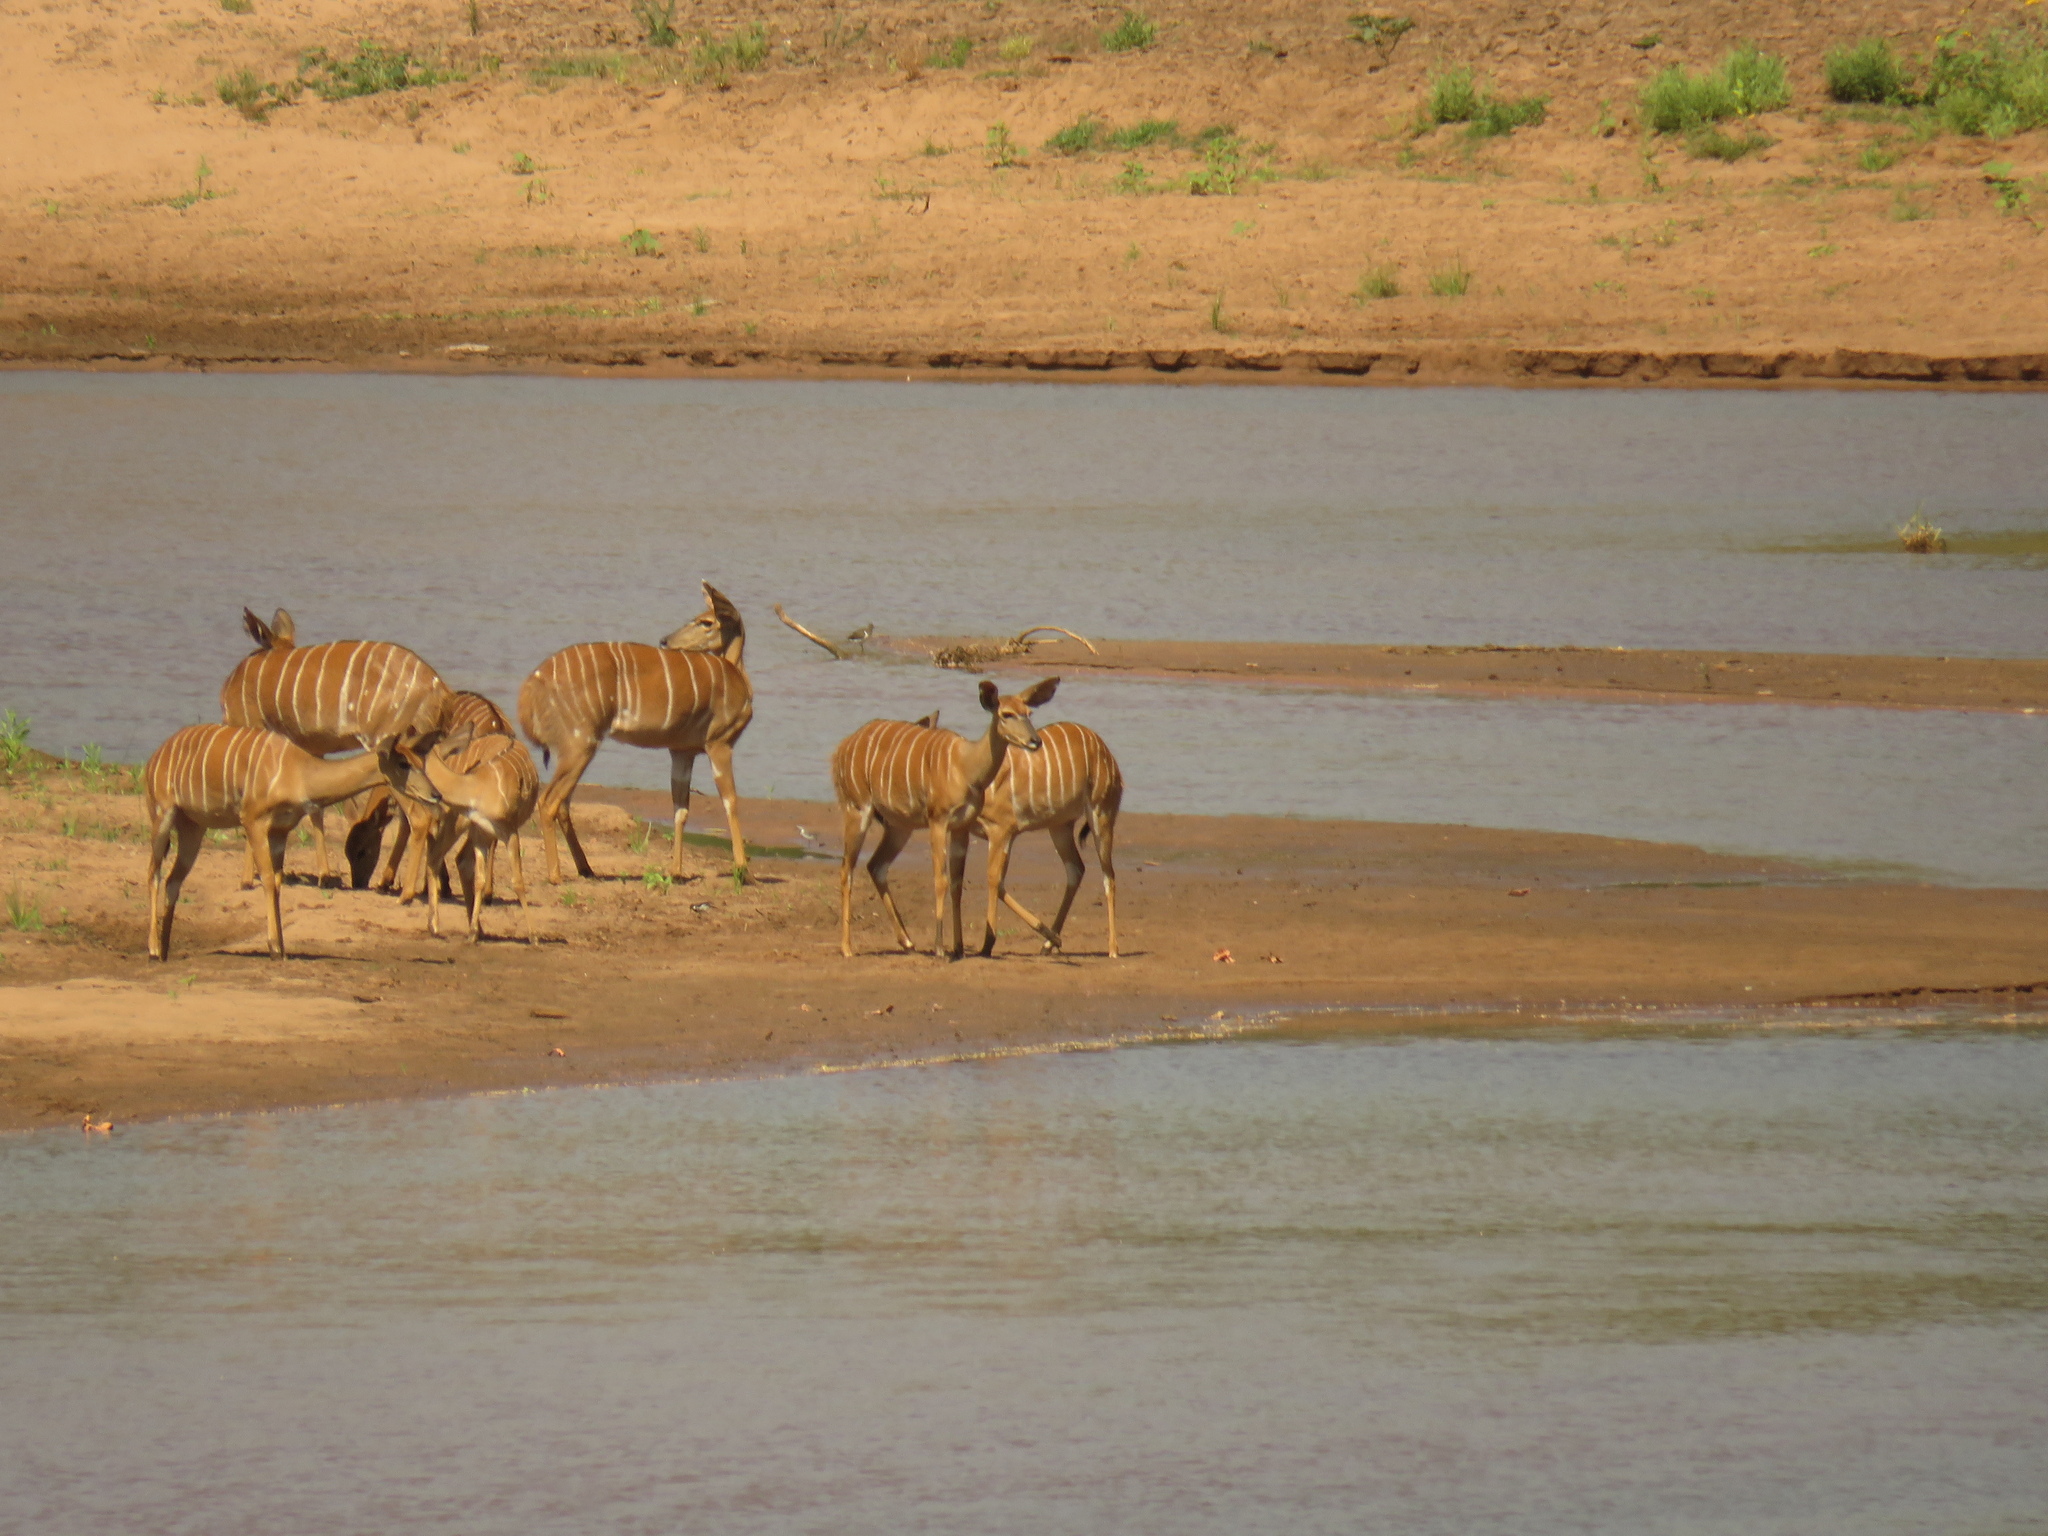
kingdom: Animalia
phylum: Chordata
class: Mammalia
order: Artiodactyla
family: Bovidae
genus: Tragelaphus
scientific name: Tragelaphus angasii
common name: Nyala
